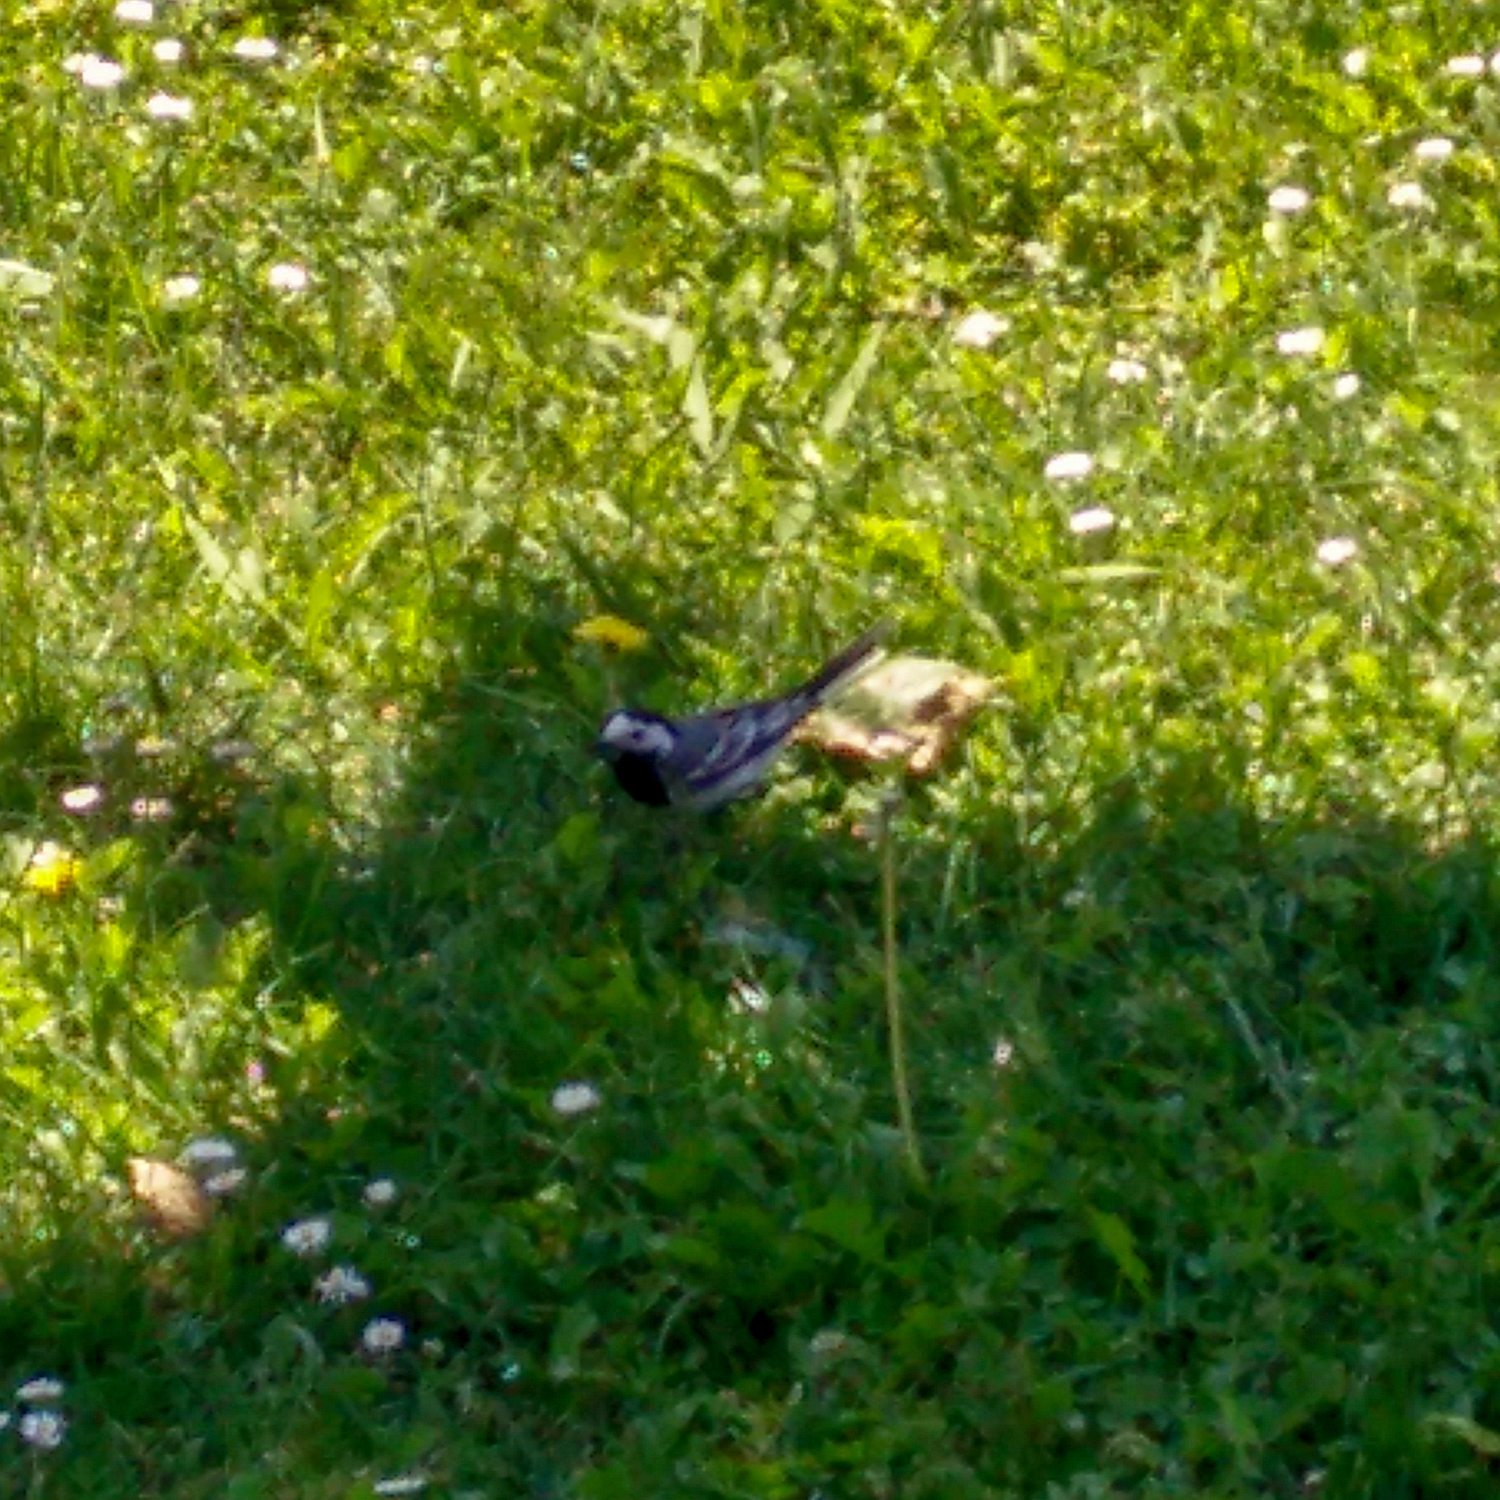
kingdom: Animalia
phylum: Chordata
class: Aves
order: Passeriformes
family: Motacillidae
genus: Motacilla
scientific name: Motacilla alba
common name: White wagtail
